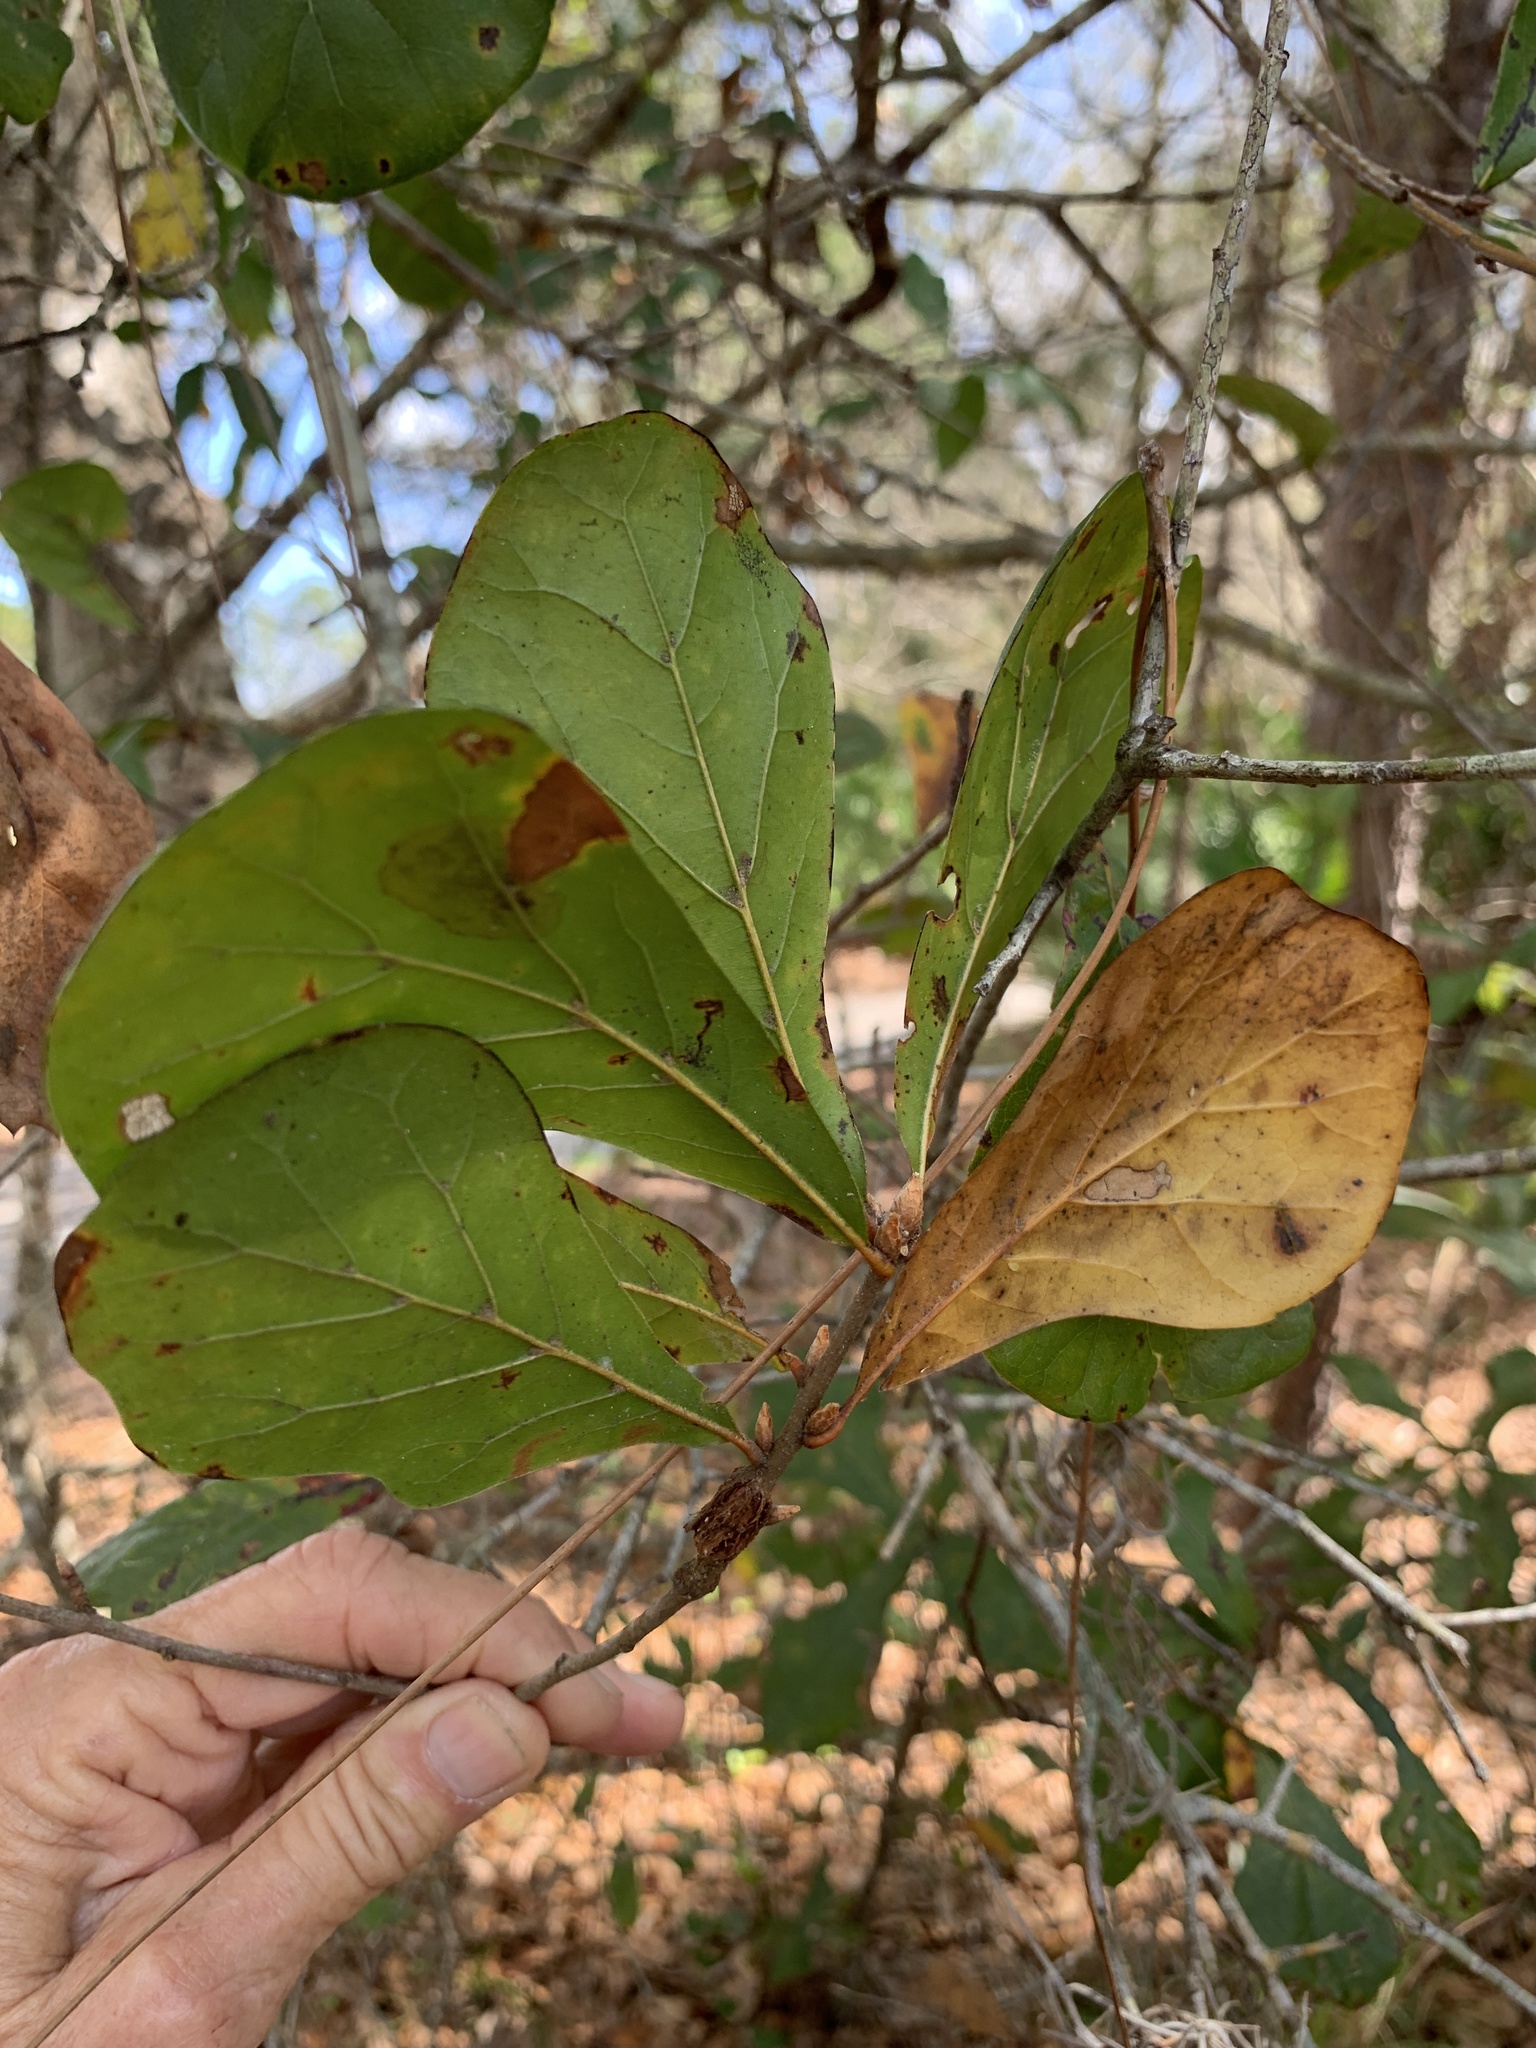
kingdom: Plantae
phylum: Tracheophyta
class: Magnoliopsida
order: Fagales
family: Fagaceae
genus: Quercus
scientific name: Quercus nigra
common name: Water oak
